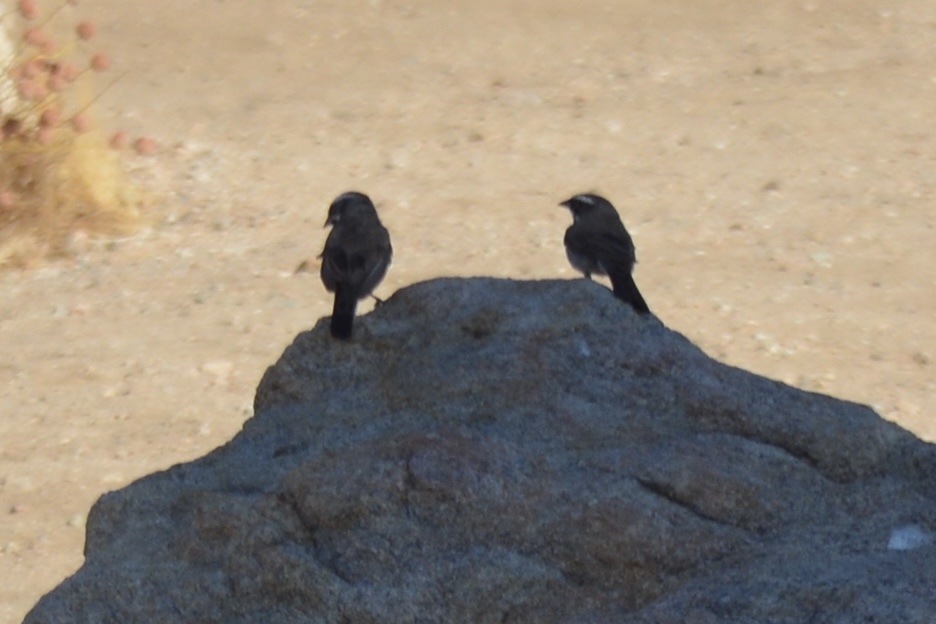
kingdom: Animalia
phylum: Chordata
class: Aves
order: Passeriformes
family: Passerellidae
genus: Amphispiza
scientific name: Amphispiza bilineata
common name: Black-throated sparrow
